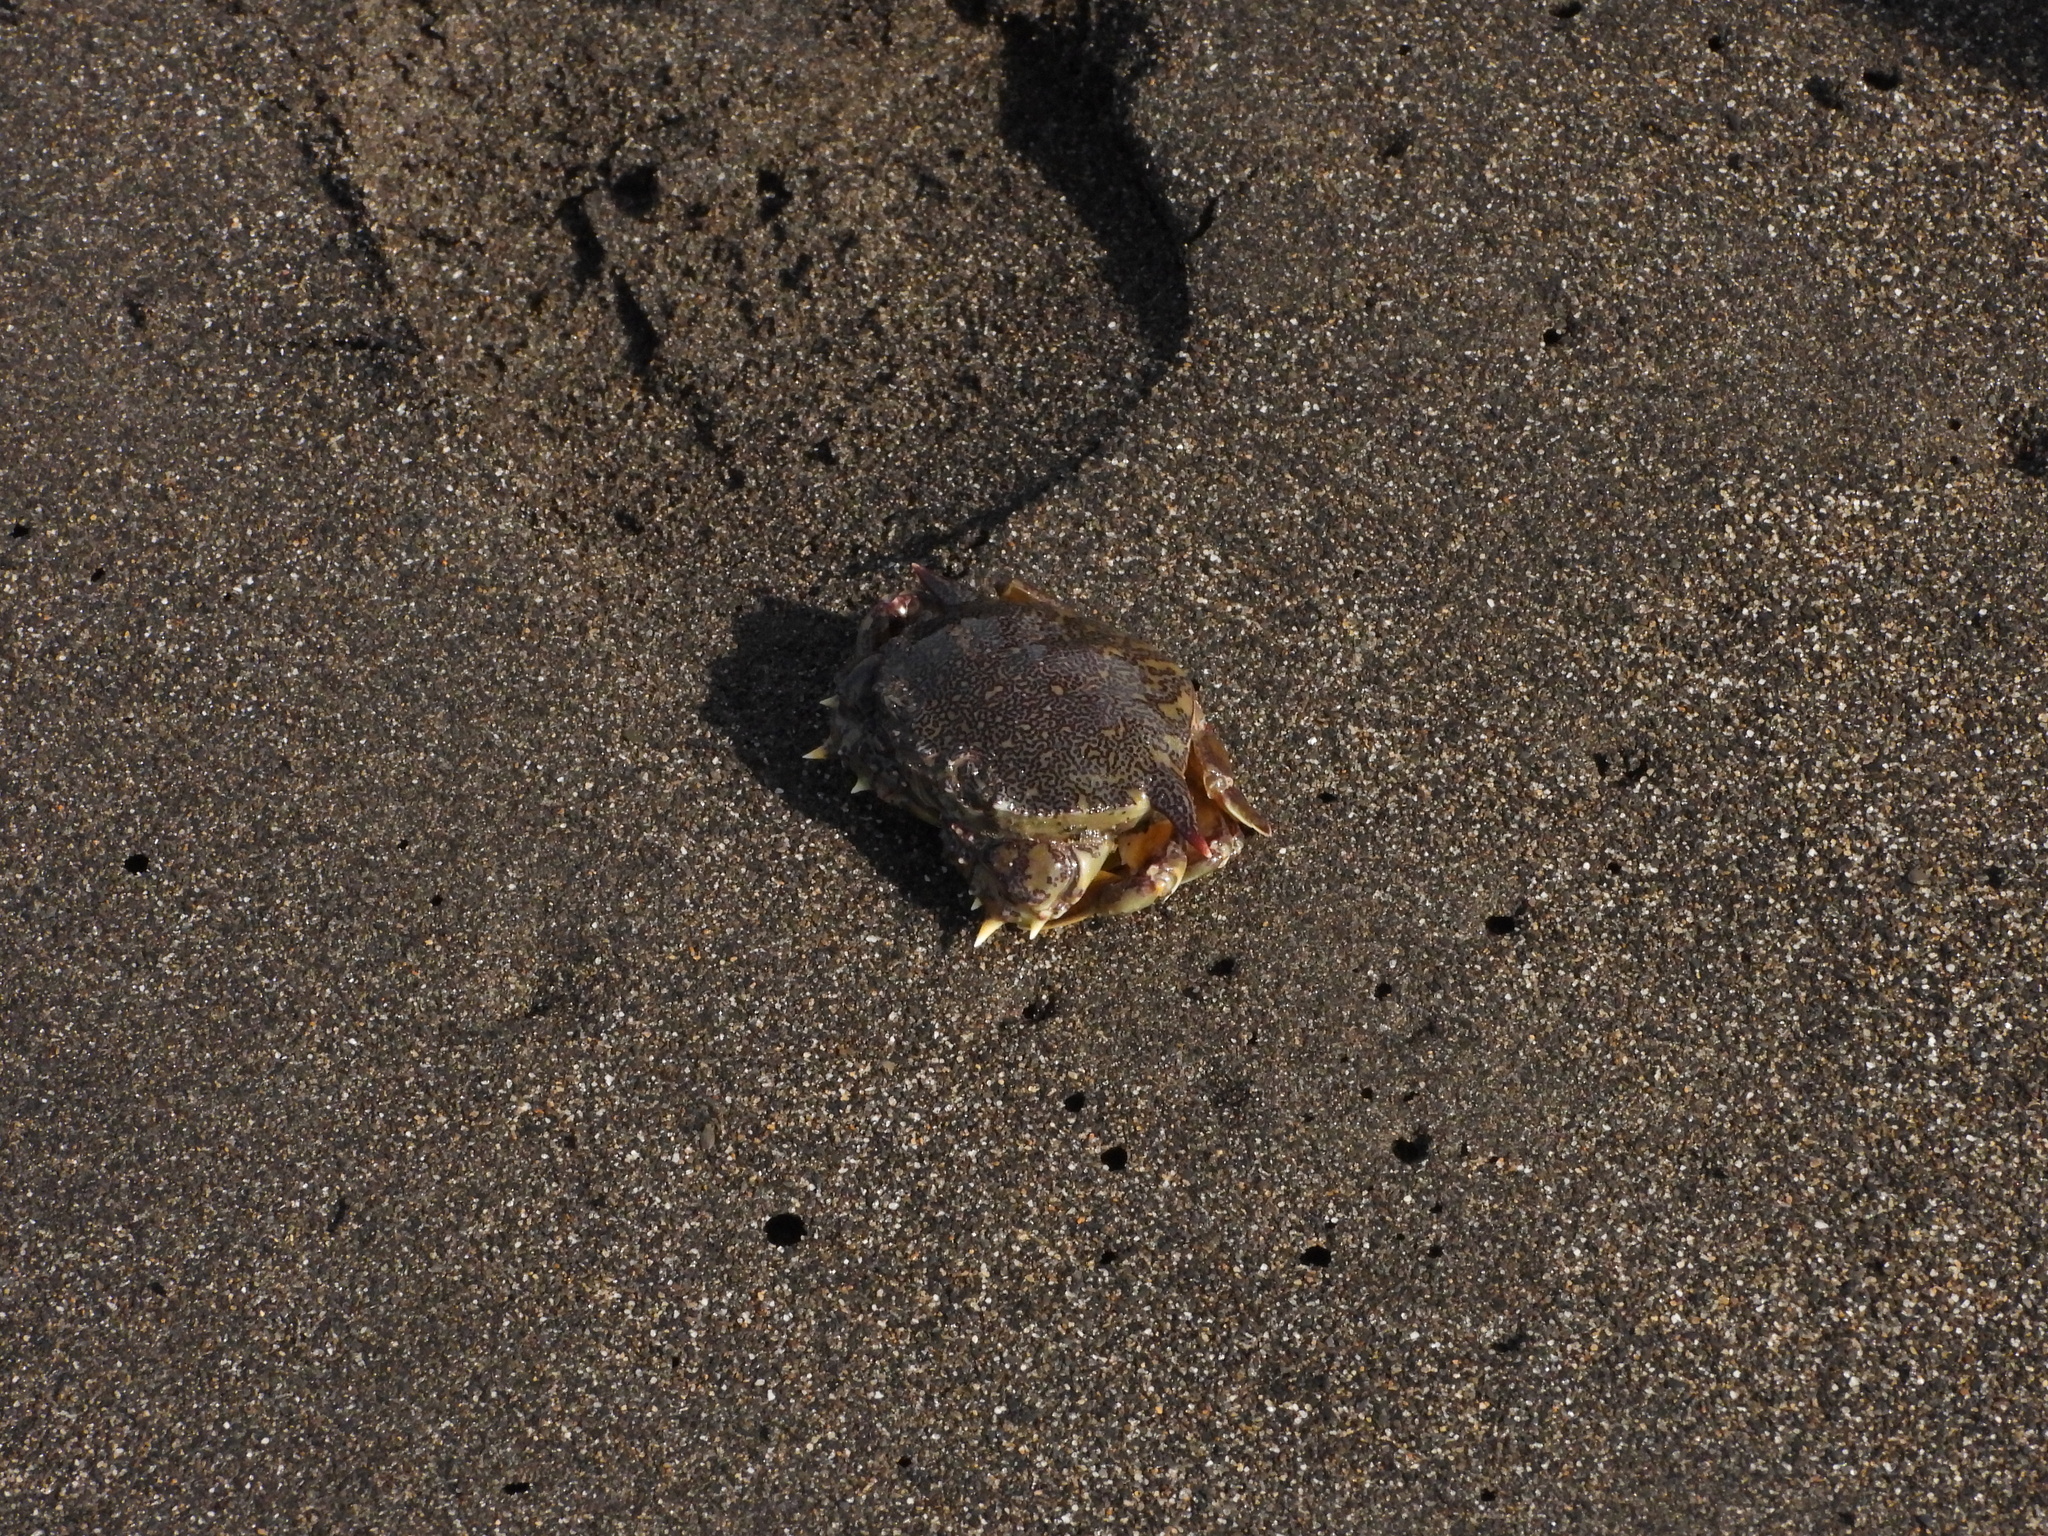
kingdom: Animalia
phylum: Arthropoda
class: Malacostraca
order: Decapoda
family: Matutidae
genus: Matuta
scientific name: Matuta victor
